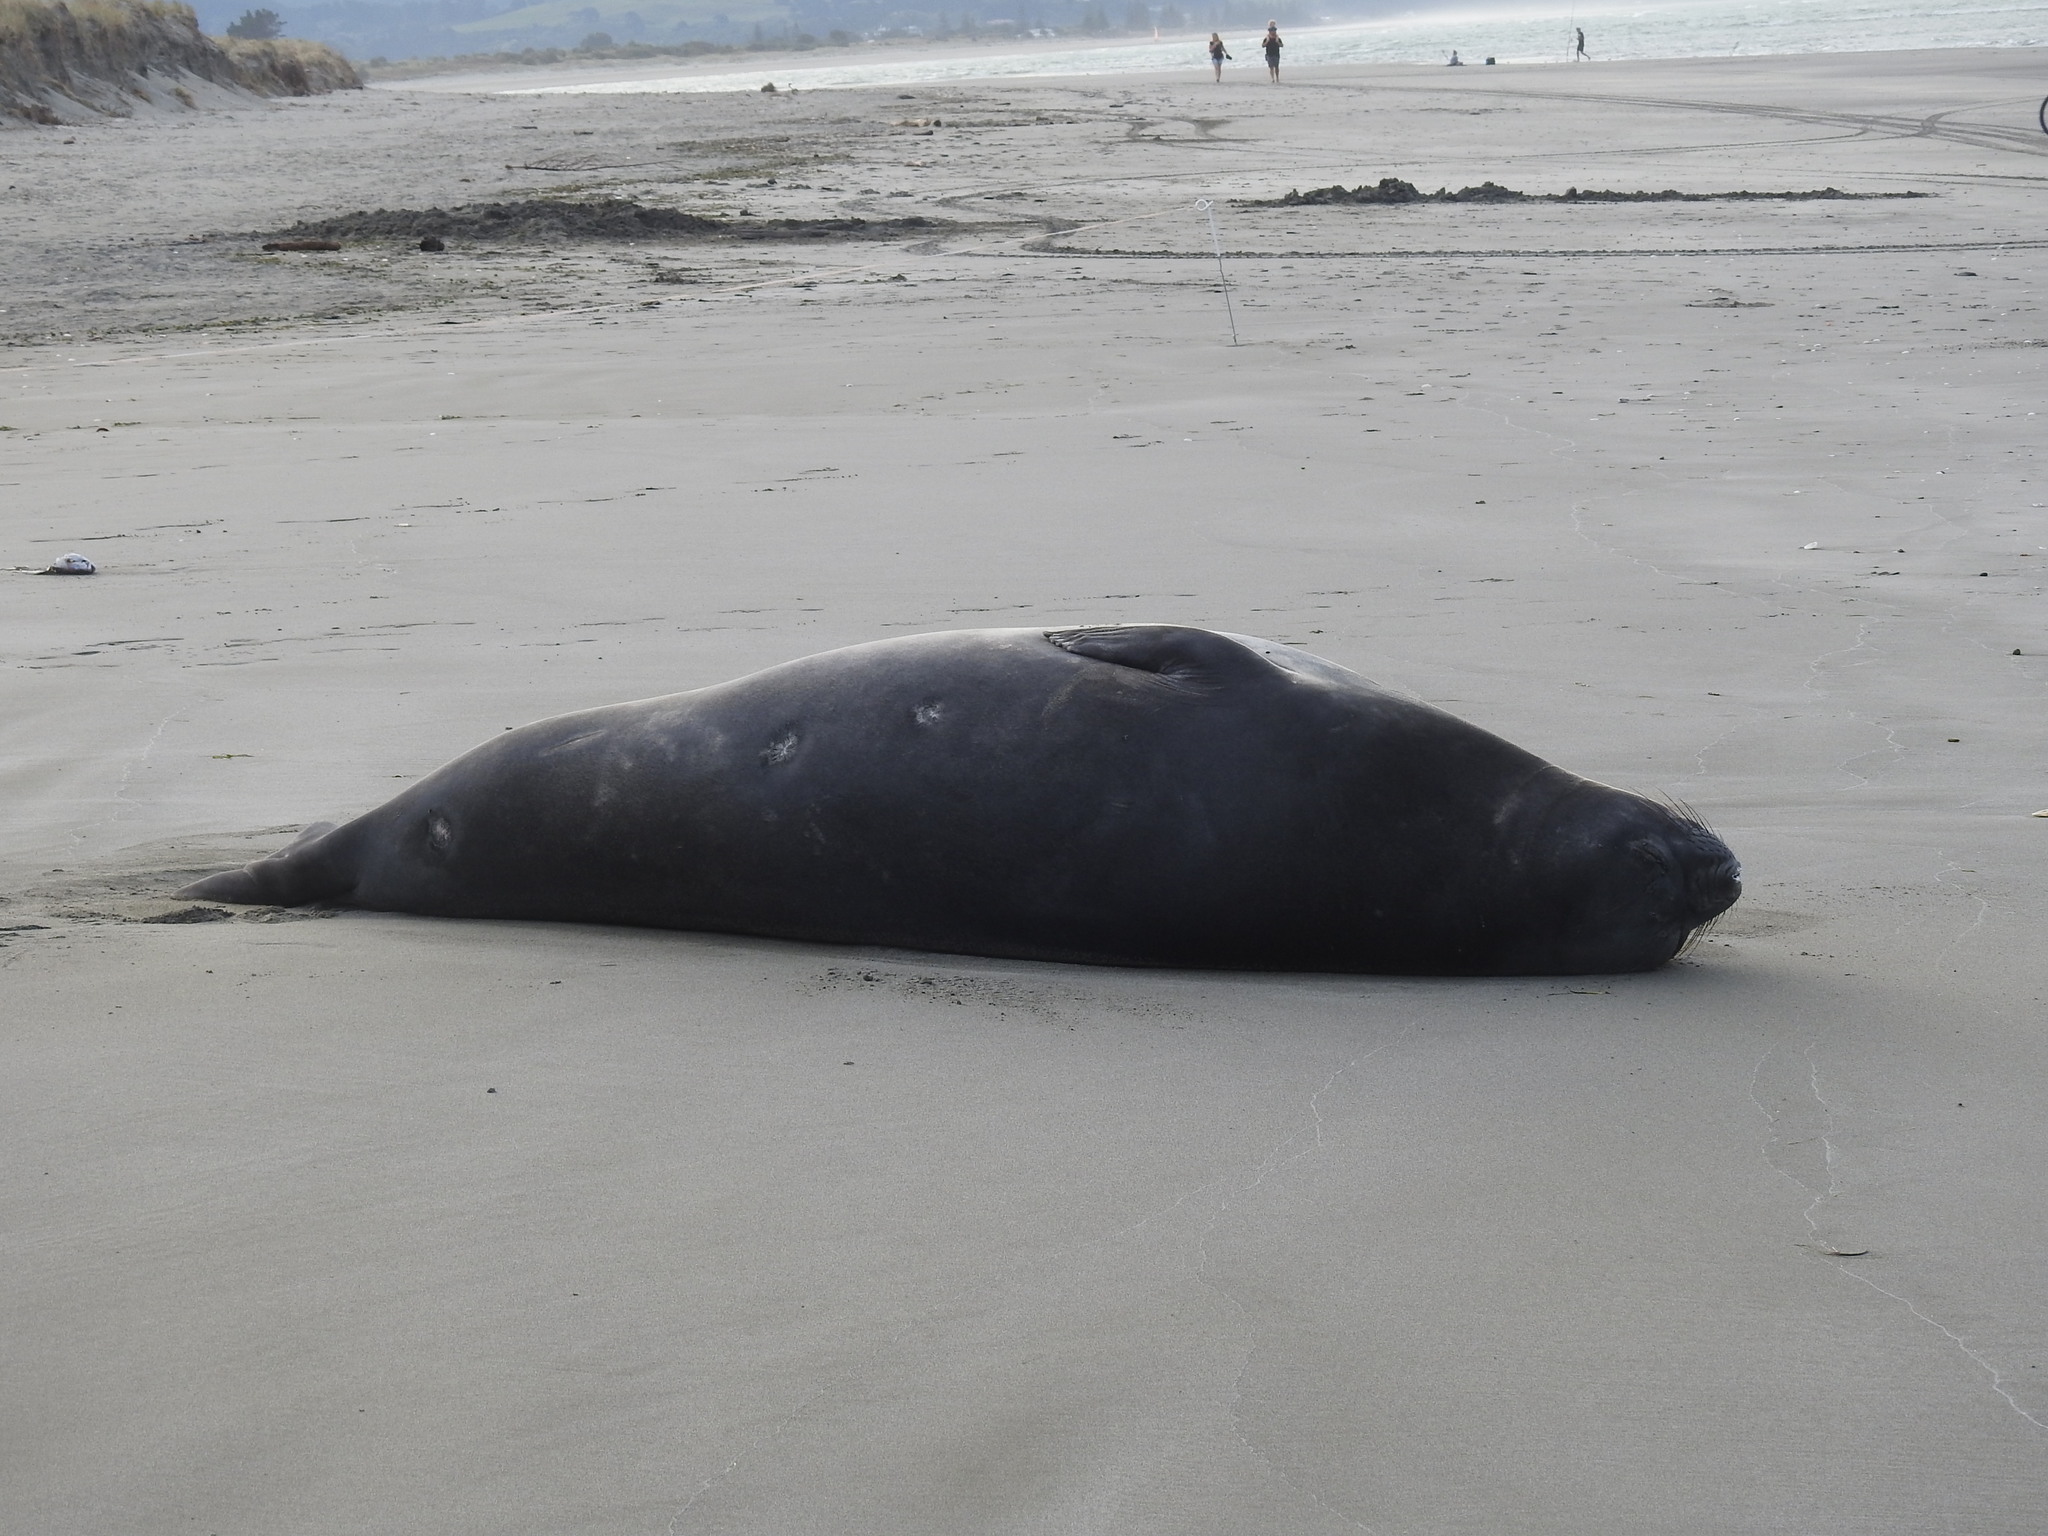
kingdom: Animalia
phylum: Chordata
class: Mammalia
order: Carnivora
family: Phocidae
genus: Mirounga
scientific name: Mirounga leonina
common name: Southern elephant seal
